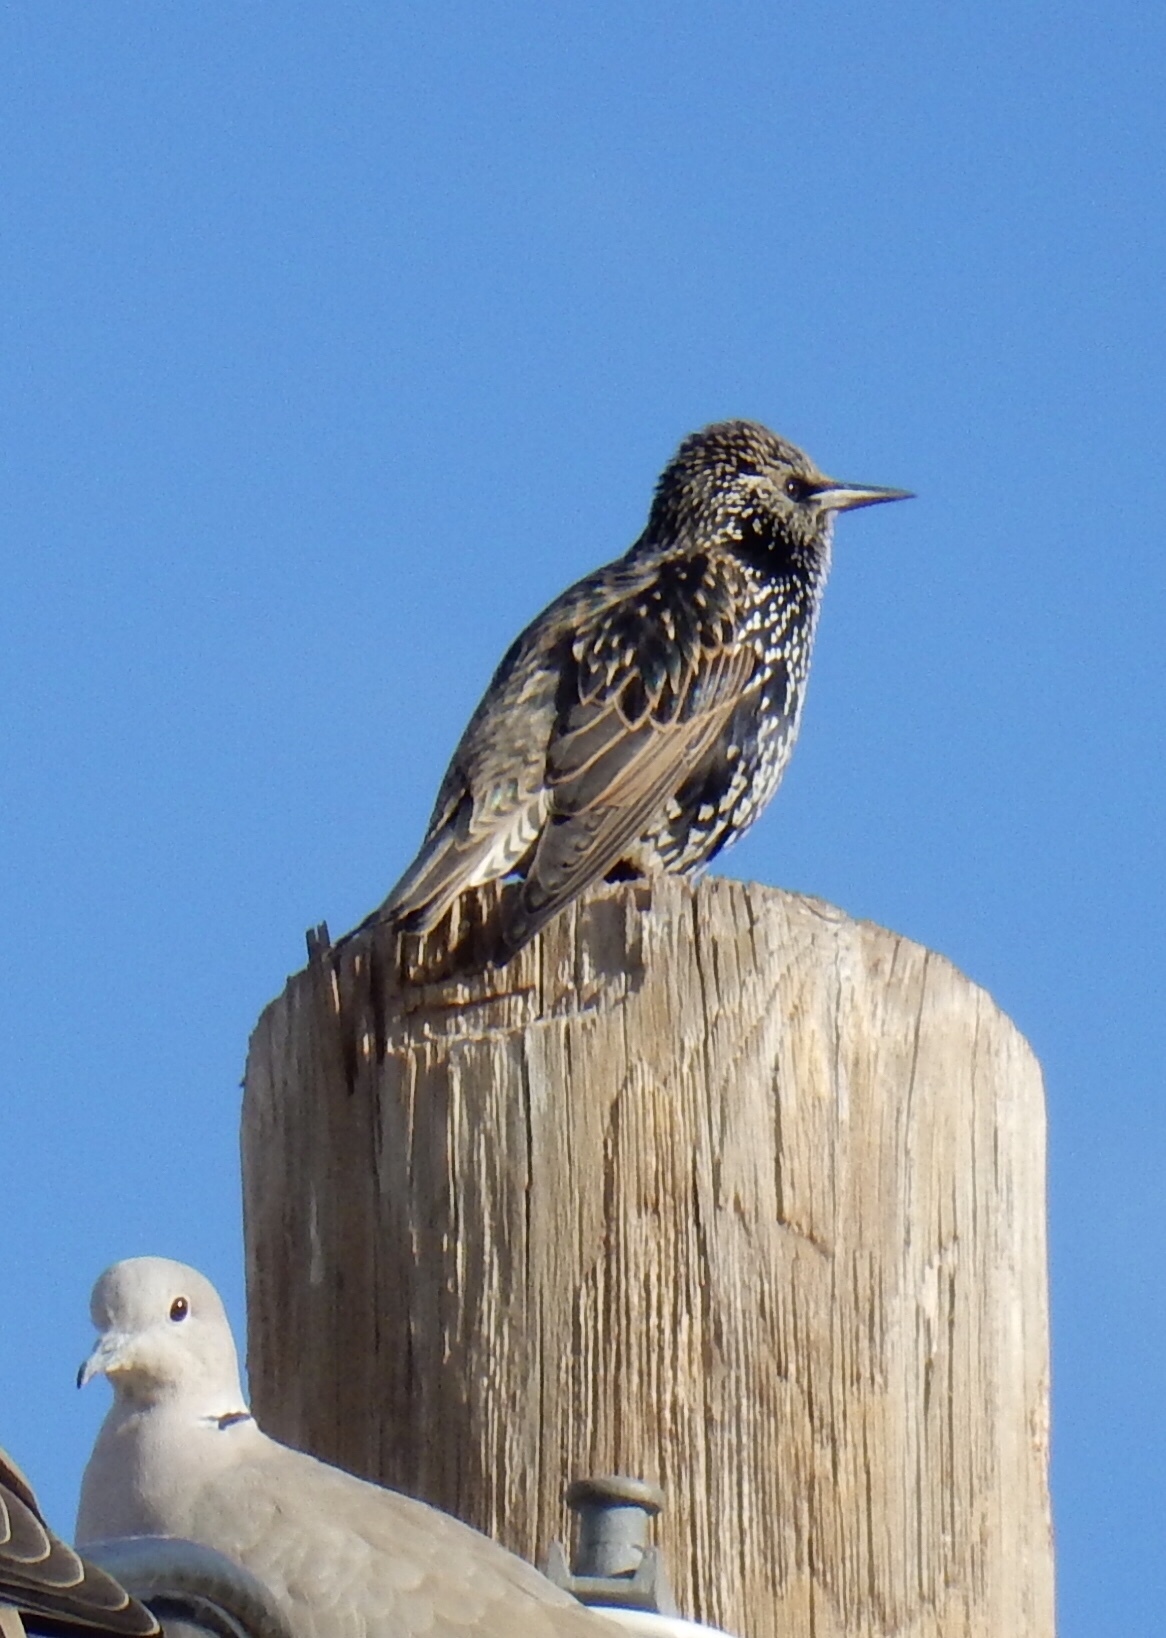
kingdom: Animalia
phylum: Chordata
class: Aves
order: Passeriformes
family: Sturnidae
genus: Sturnus
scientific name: Sturnus vulgaris
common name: Common starling
